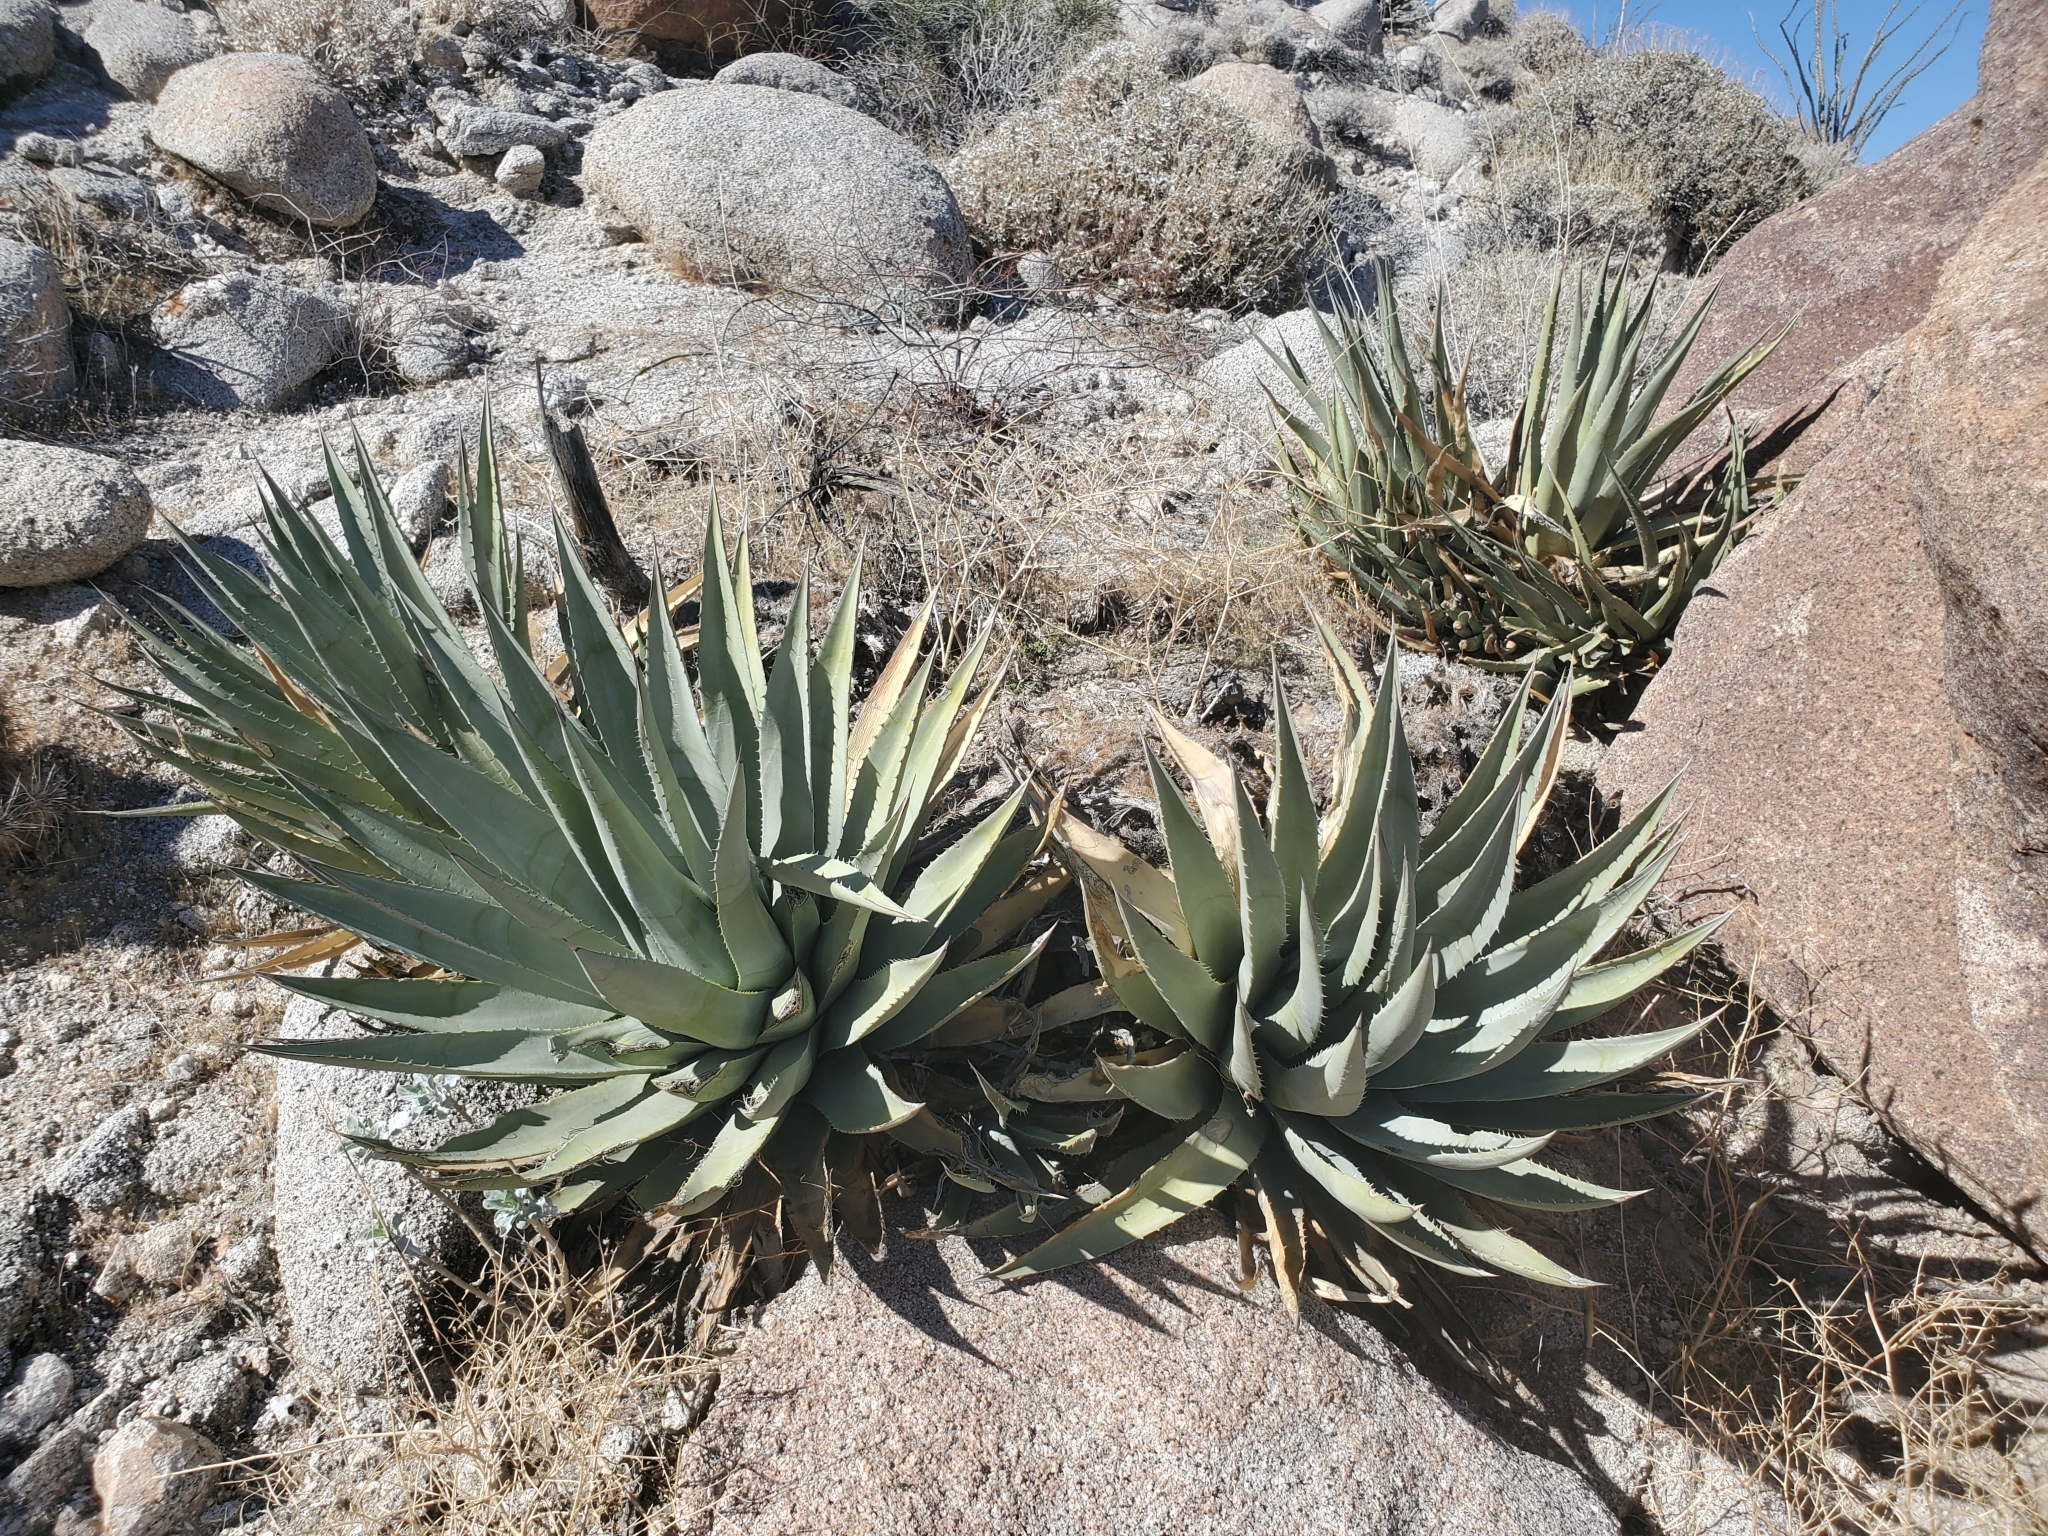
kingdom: Plantae
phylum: Tracheophyta
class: Liliopsida
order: Asparagales
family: Asparagaceae
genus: Agave
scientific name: Agave deserti
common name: Desert agave
